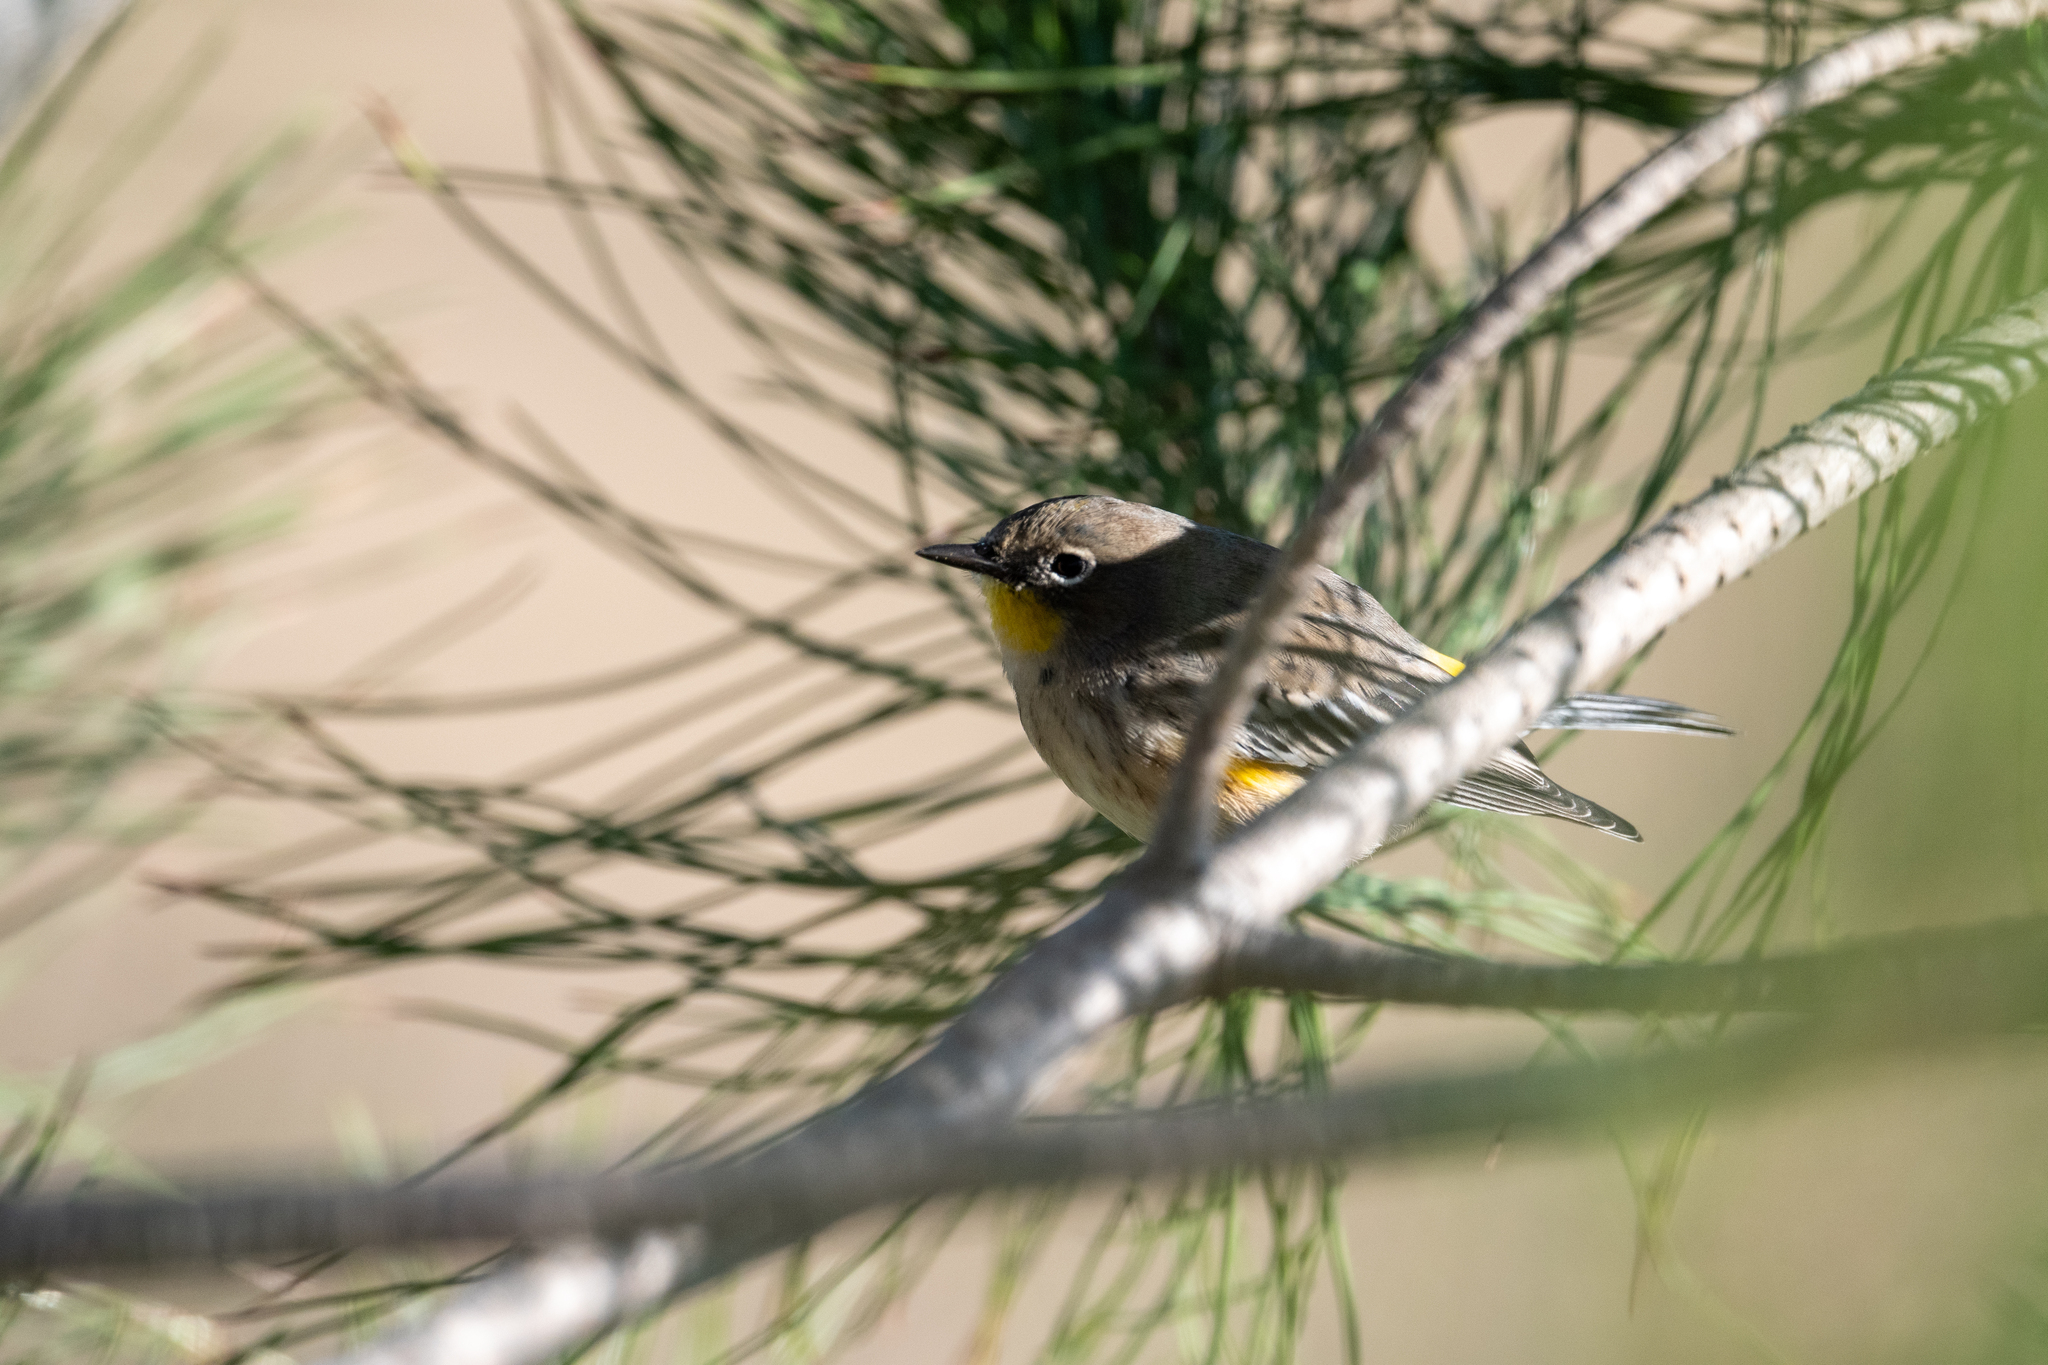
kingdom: Animalia
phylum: Chordata
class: Aves
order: Passeriformes
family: Parulidae
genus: Setophaga
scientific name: Setophaga coronata
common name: Myrtle warbler
